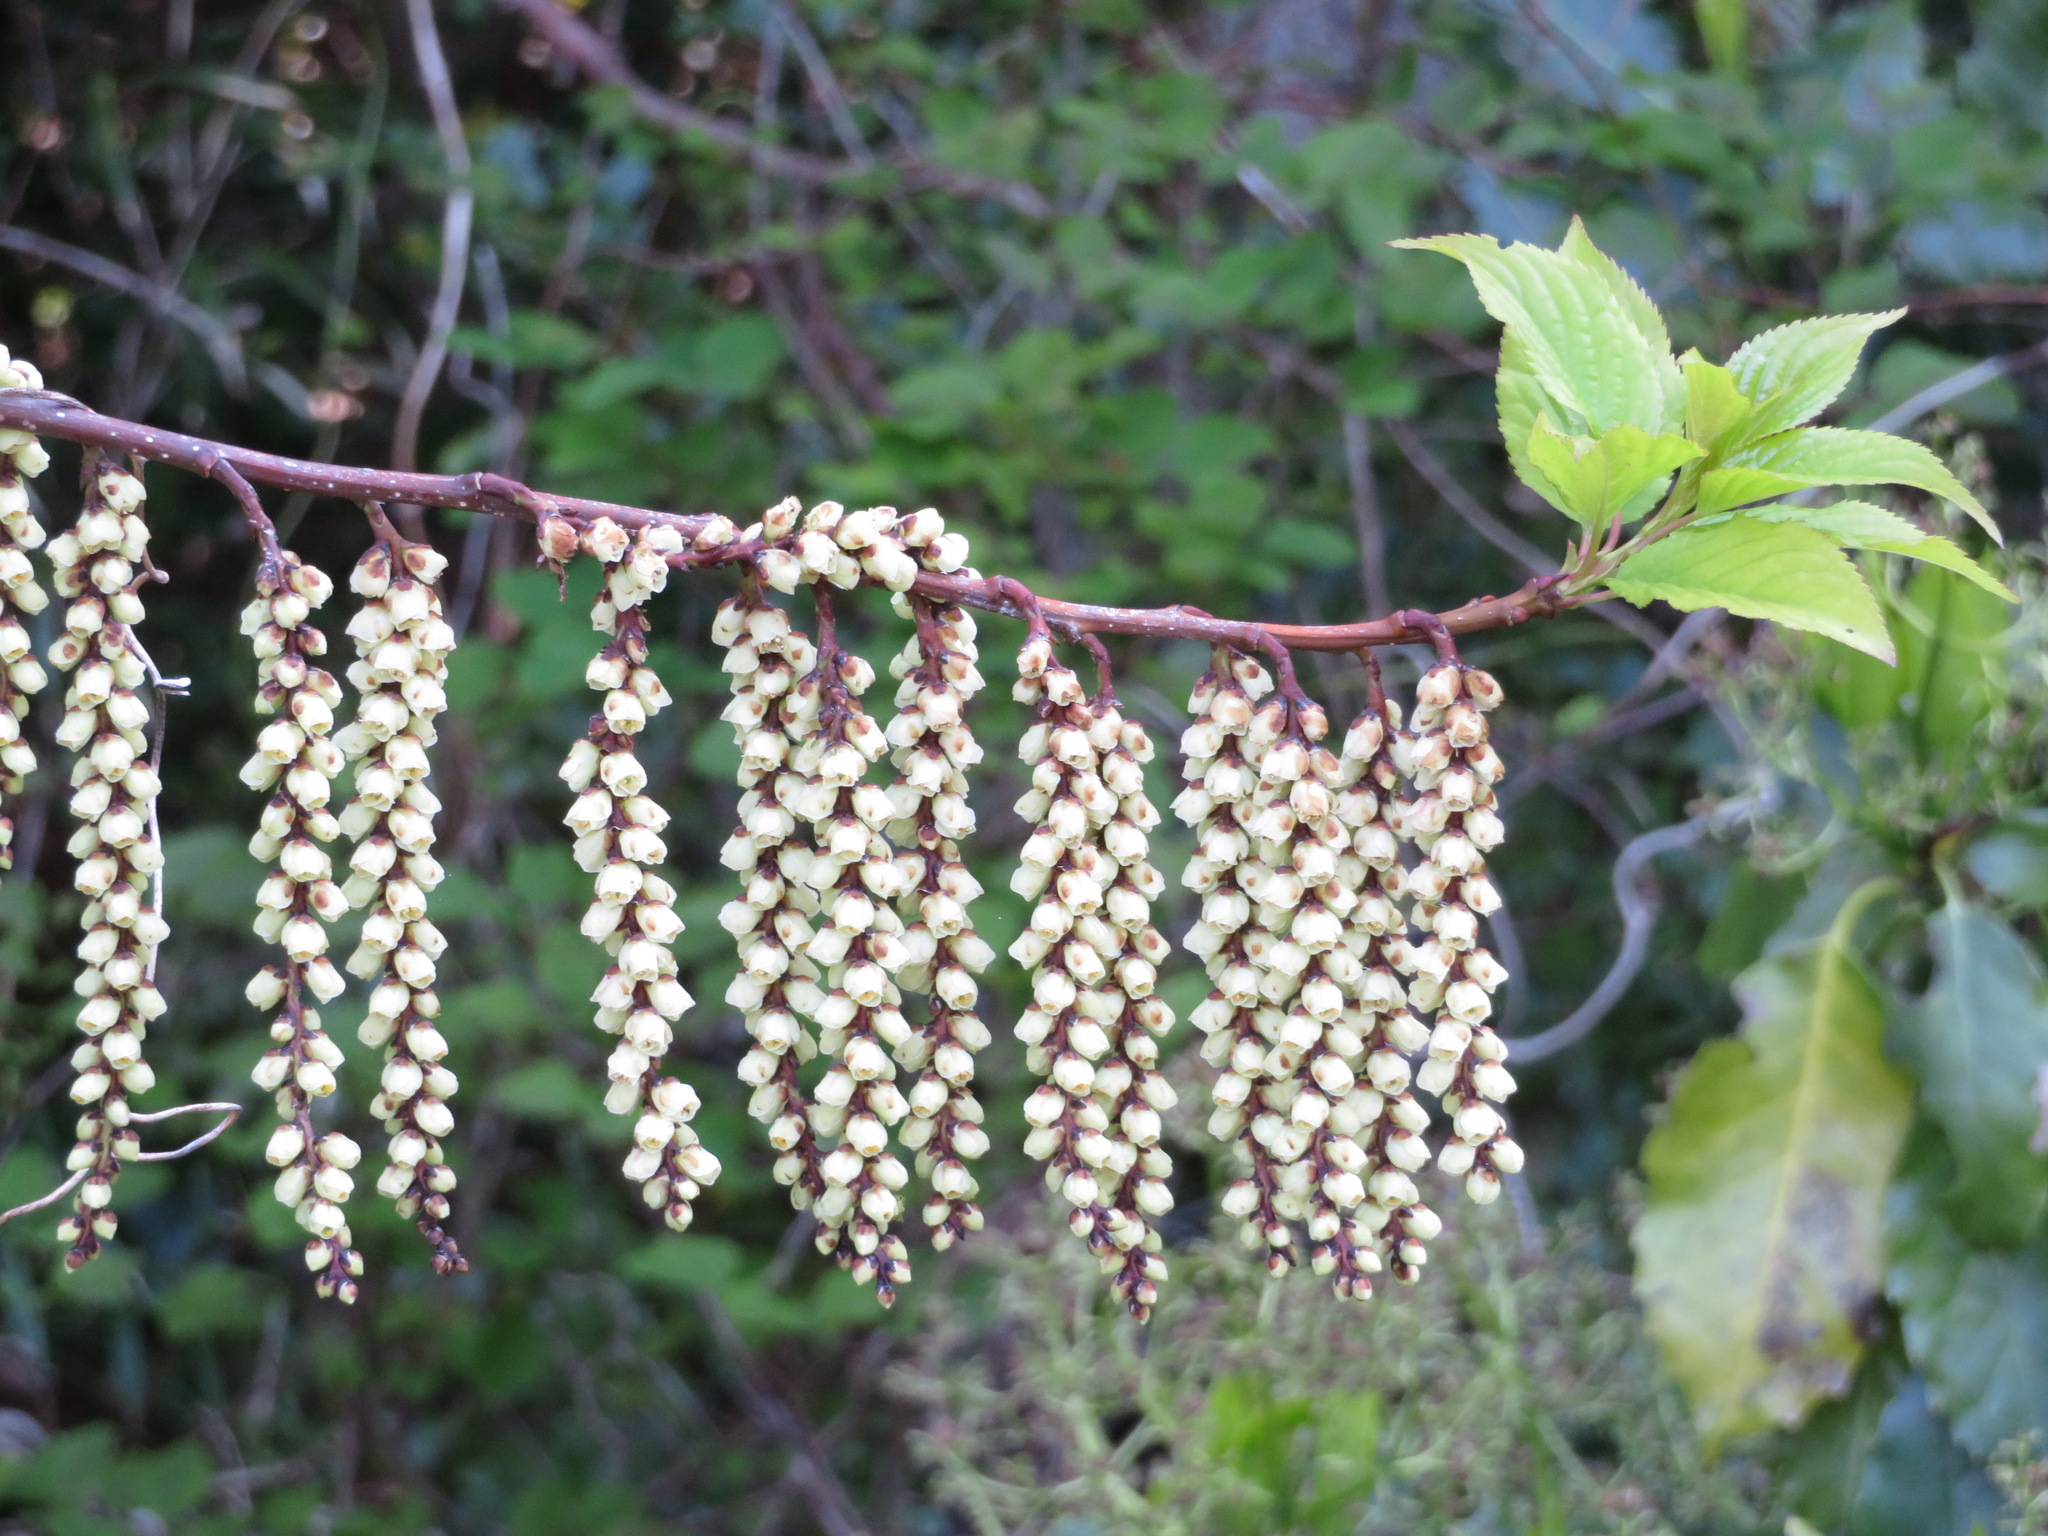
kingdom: Plantae
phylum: Tracheophyta
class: Magnoliopsida
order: Crossosomatales
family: Stachyuraceae
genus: Stachyurus
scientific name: Stachyurus praecox
